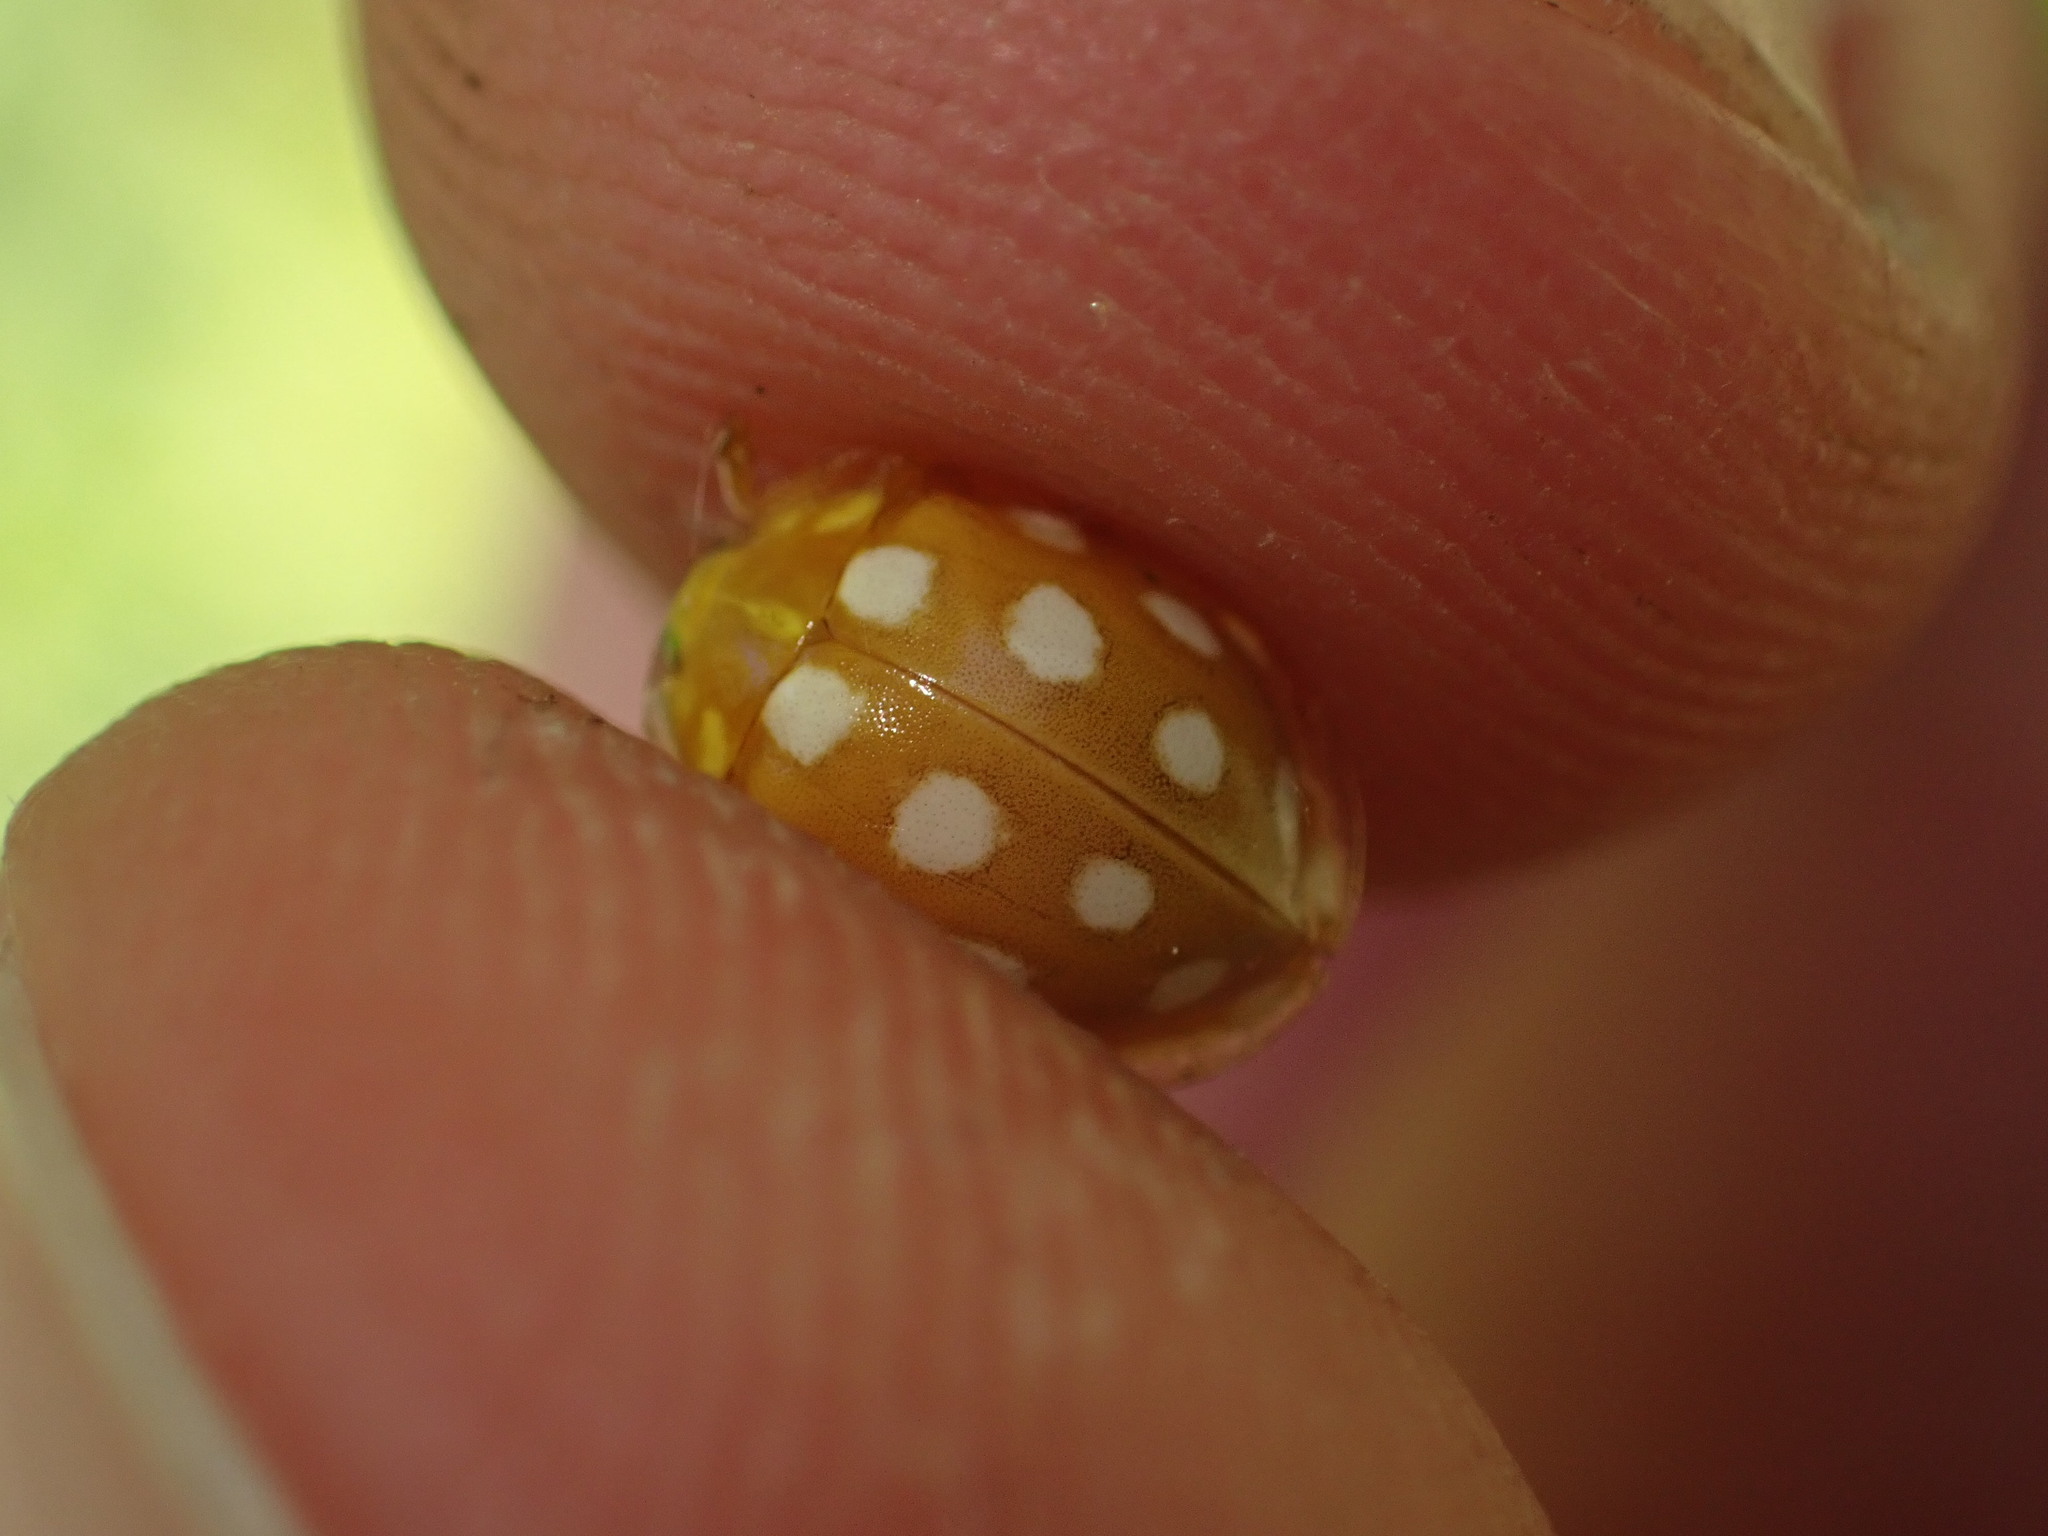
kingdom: Animalia
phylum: Arthropoda
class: Insecta
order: Coleoptera
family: Coccinellidae
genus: Halyzia
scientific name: Halyzia sedecimguttata
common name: Orange ladybird
